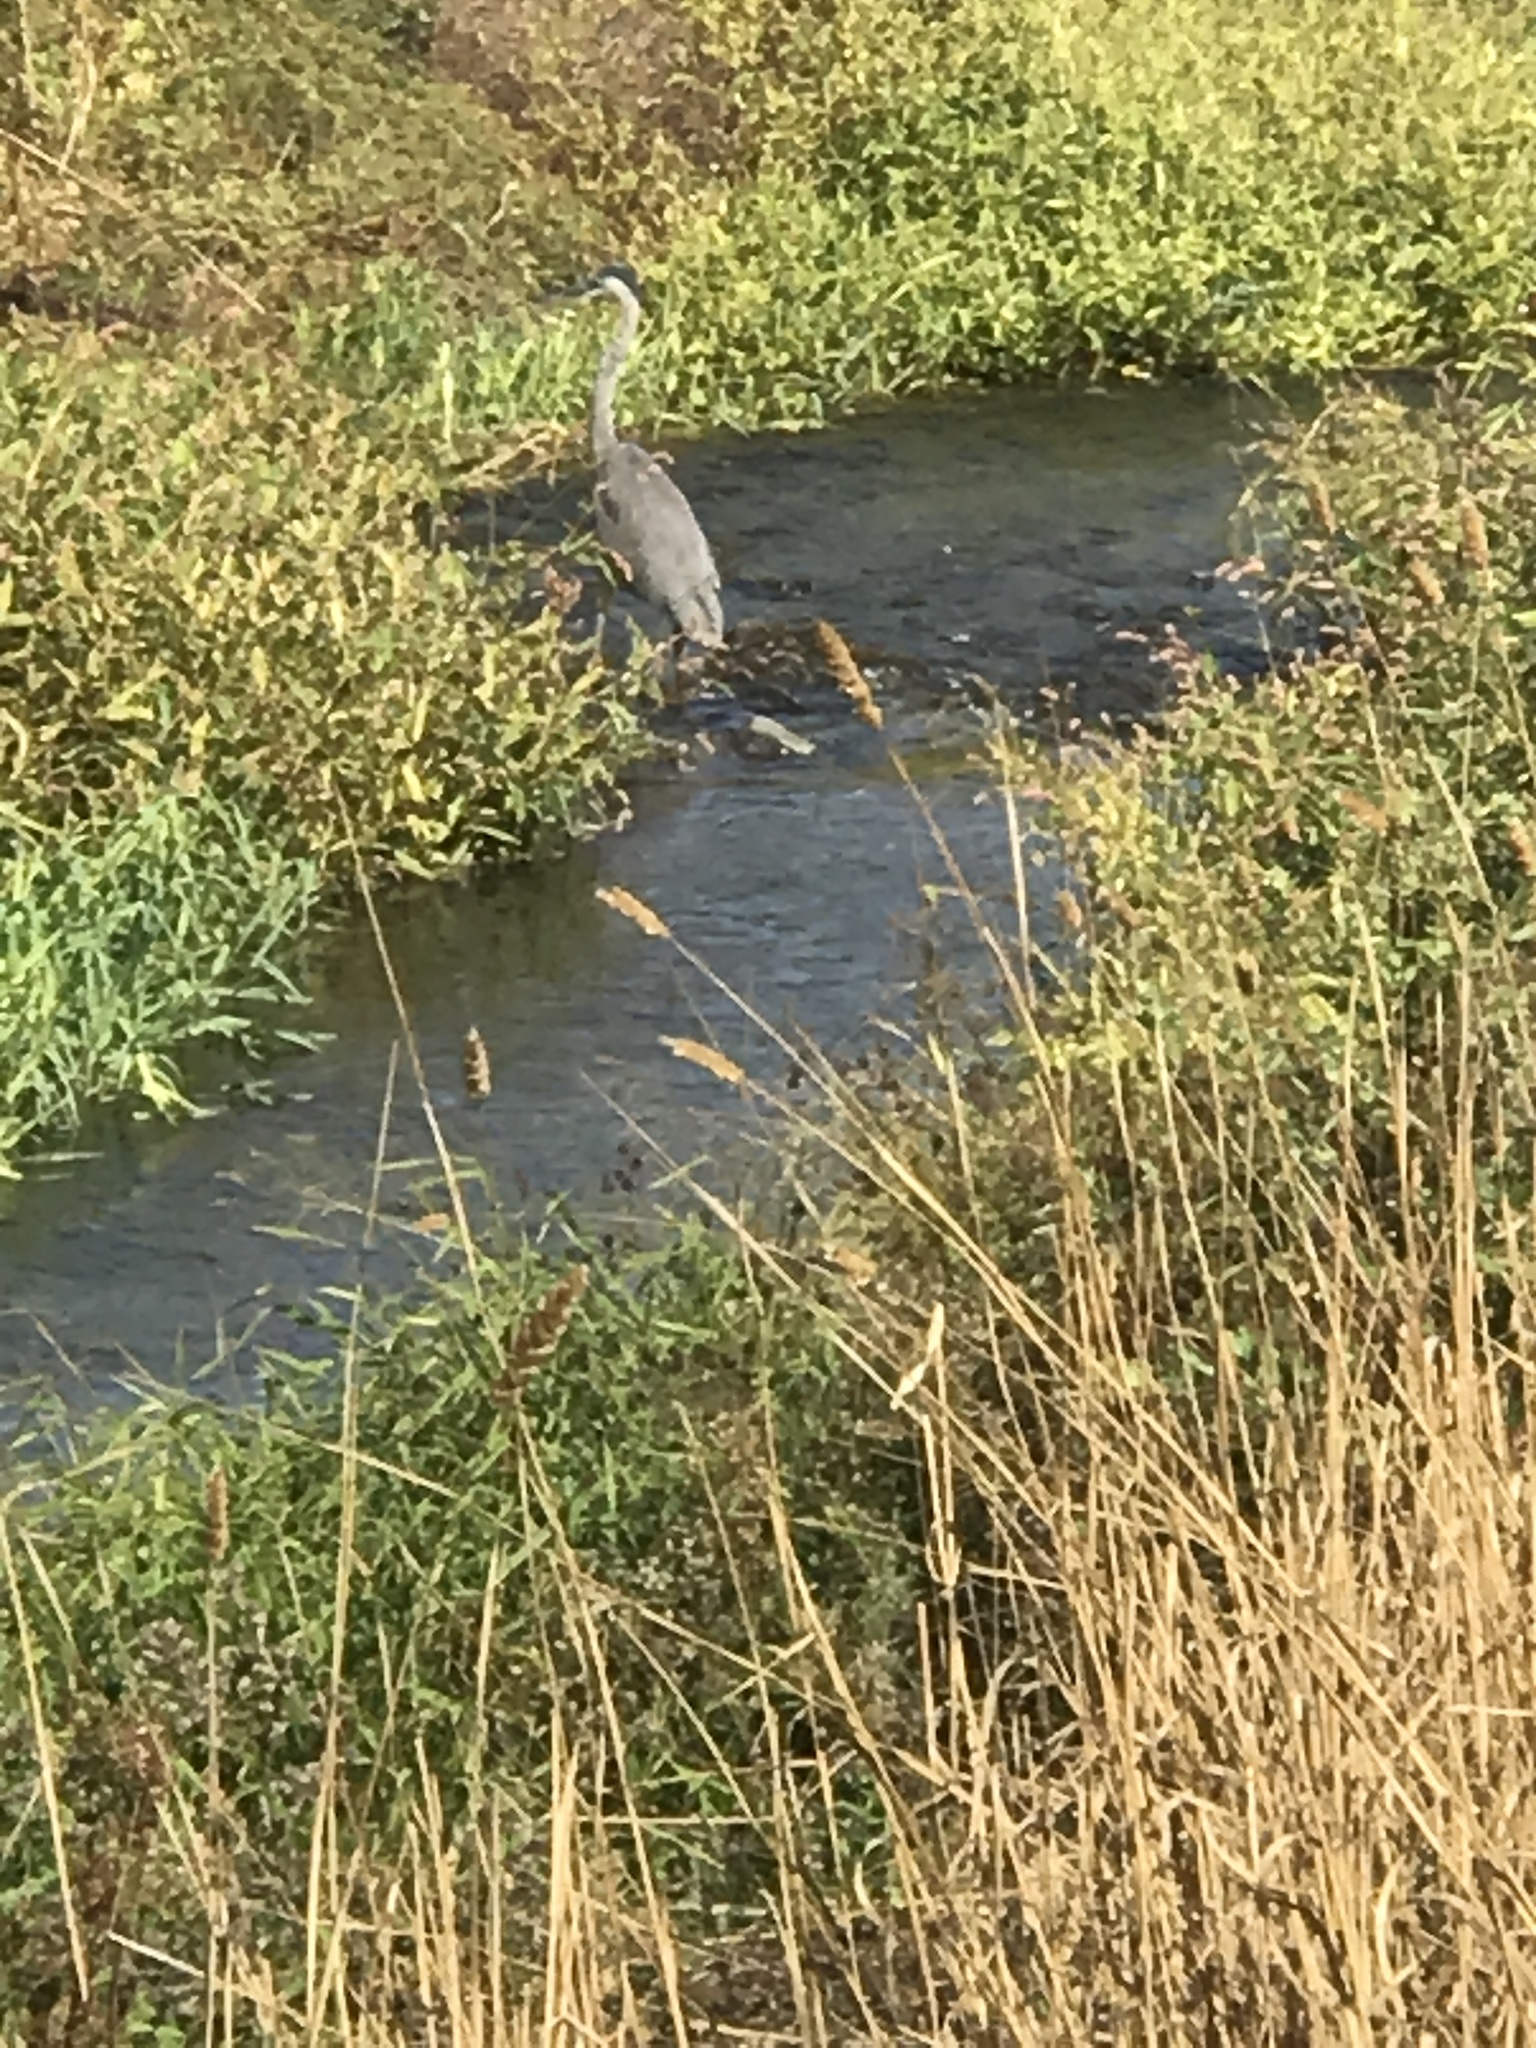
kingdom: Animalia
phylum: Chordata
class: Aves
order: Pelecaniformes
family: Ardeidae
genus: Ardea
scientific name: Ardea herodias
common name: Great blue heron
